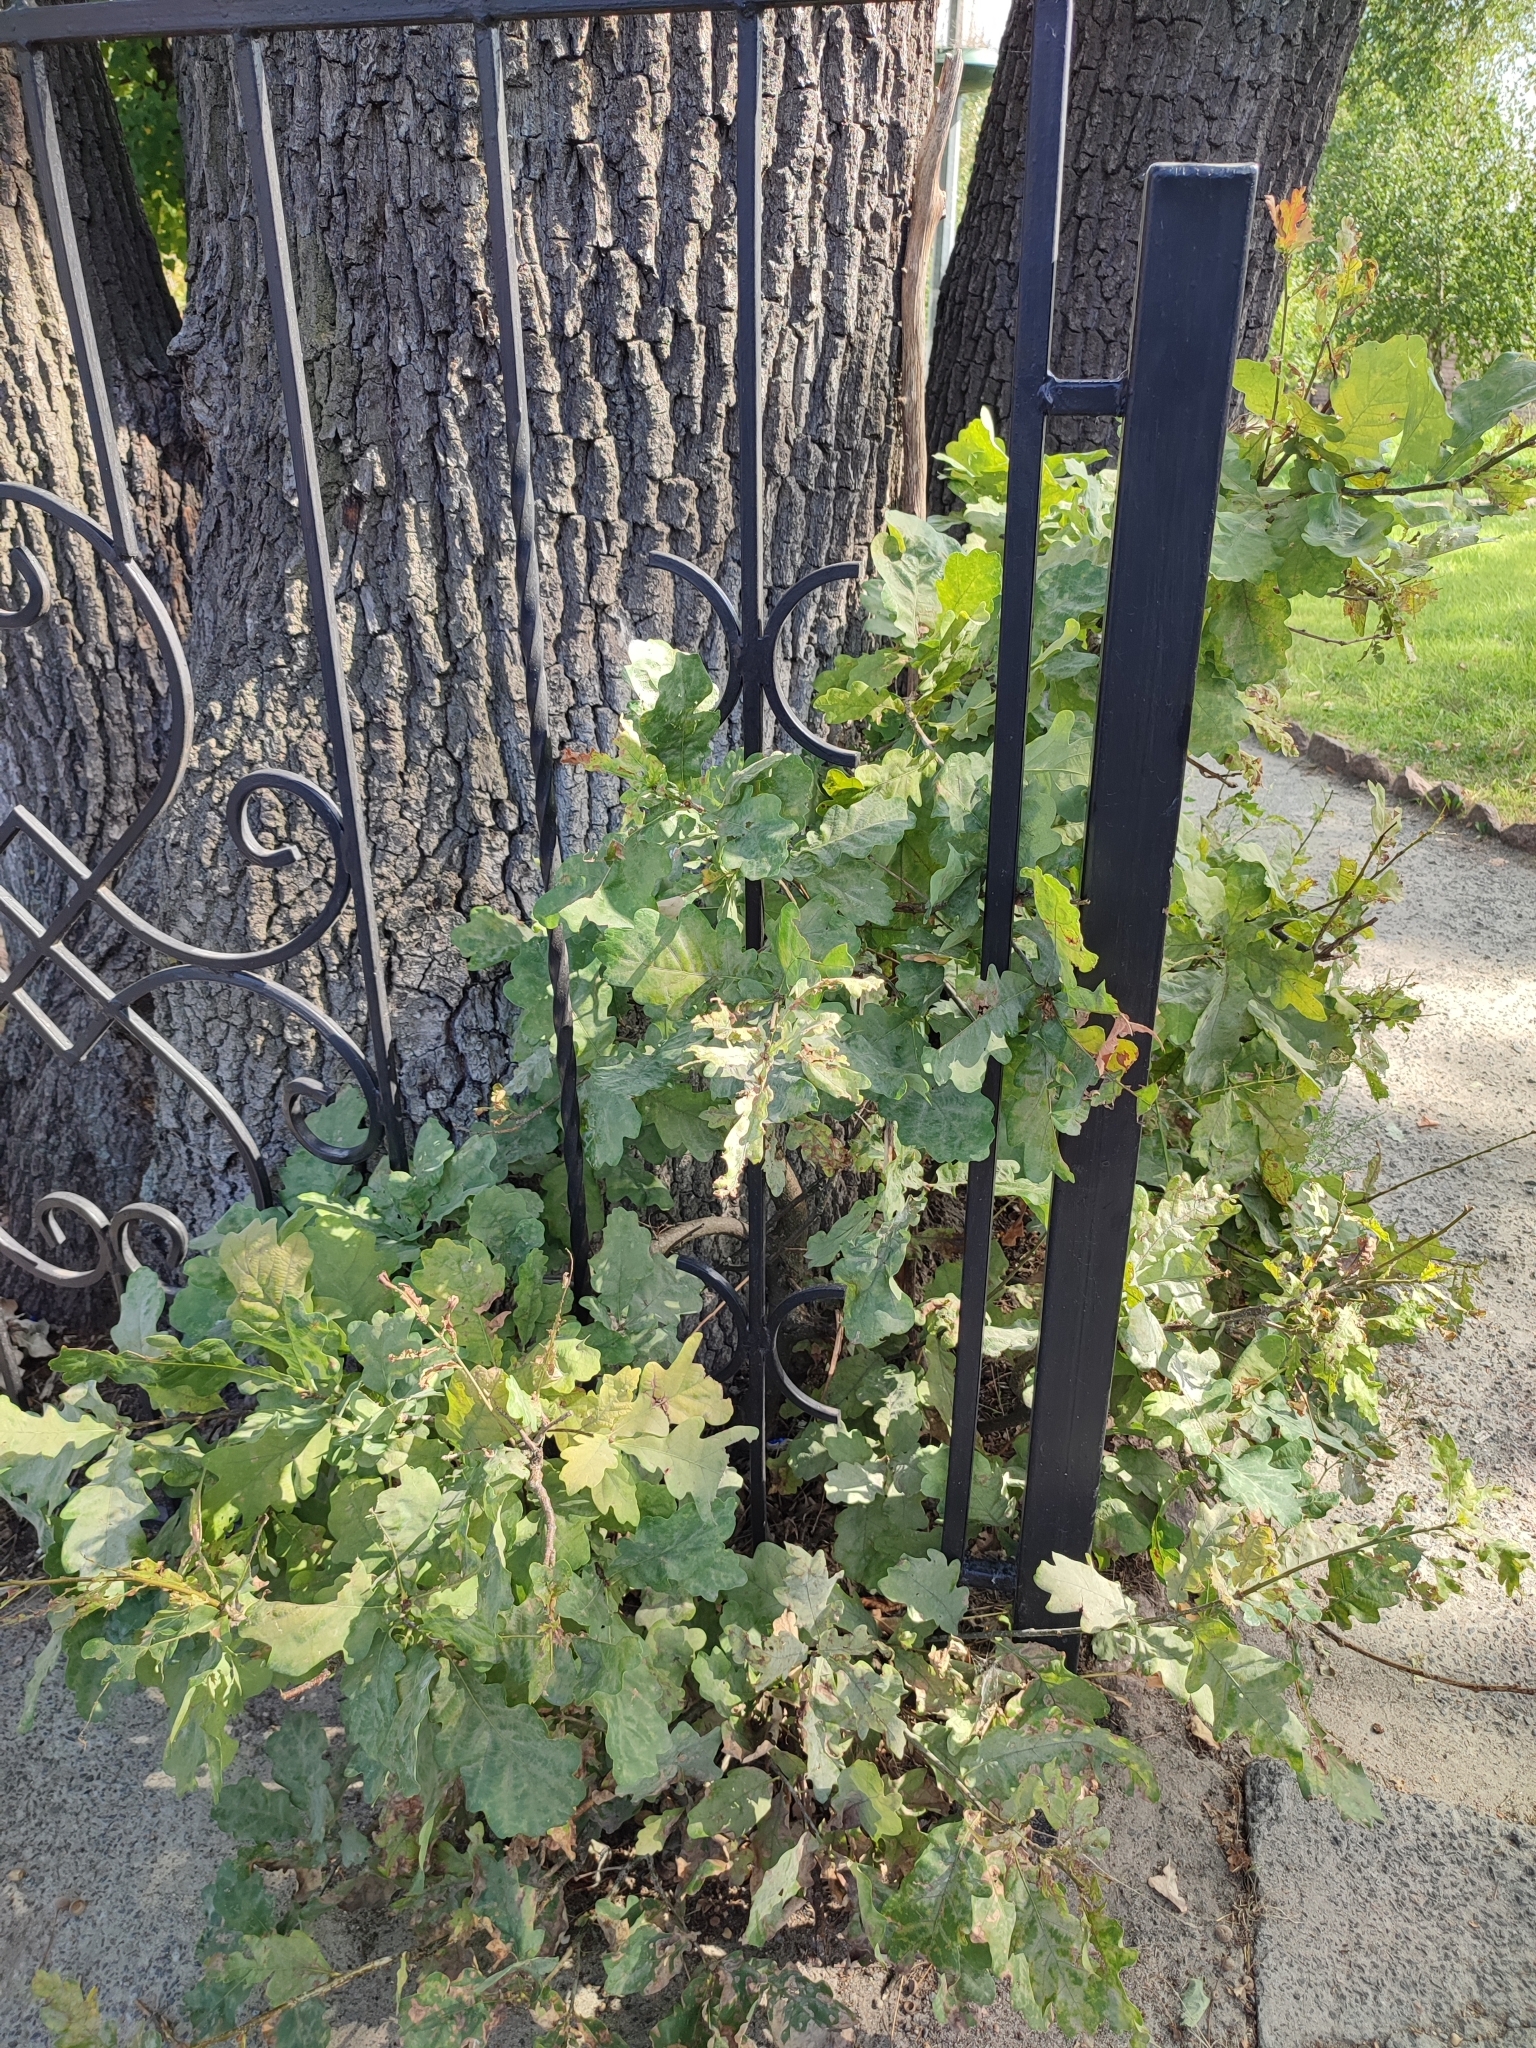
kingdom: Plantae
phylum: Tracheophyta
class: Magnoliopsida
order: Fagales
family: Fagaceae
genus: Quercus
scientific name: Quercus robur
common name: Pedunculate oak
